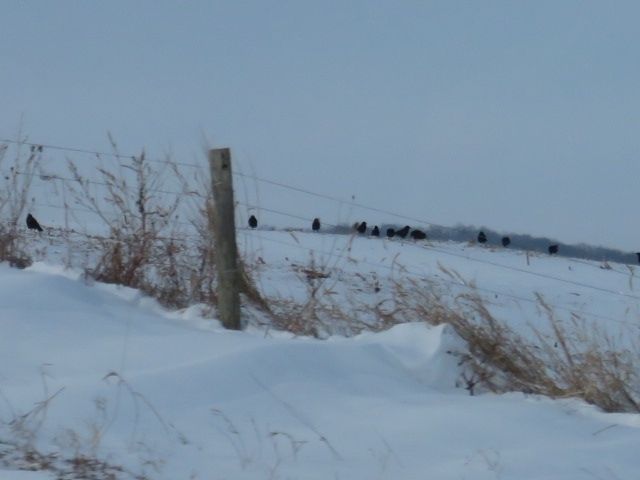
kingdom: Animalia
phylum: Chordata
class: Aves
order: Passeriformes
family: Corvidae
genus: Corvus
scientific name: Corvus brachyrhynchos
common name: American crow
